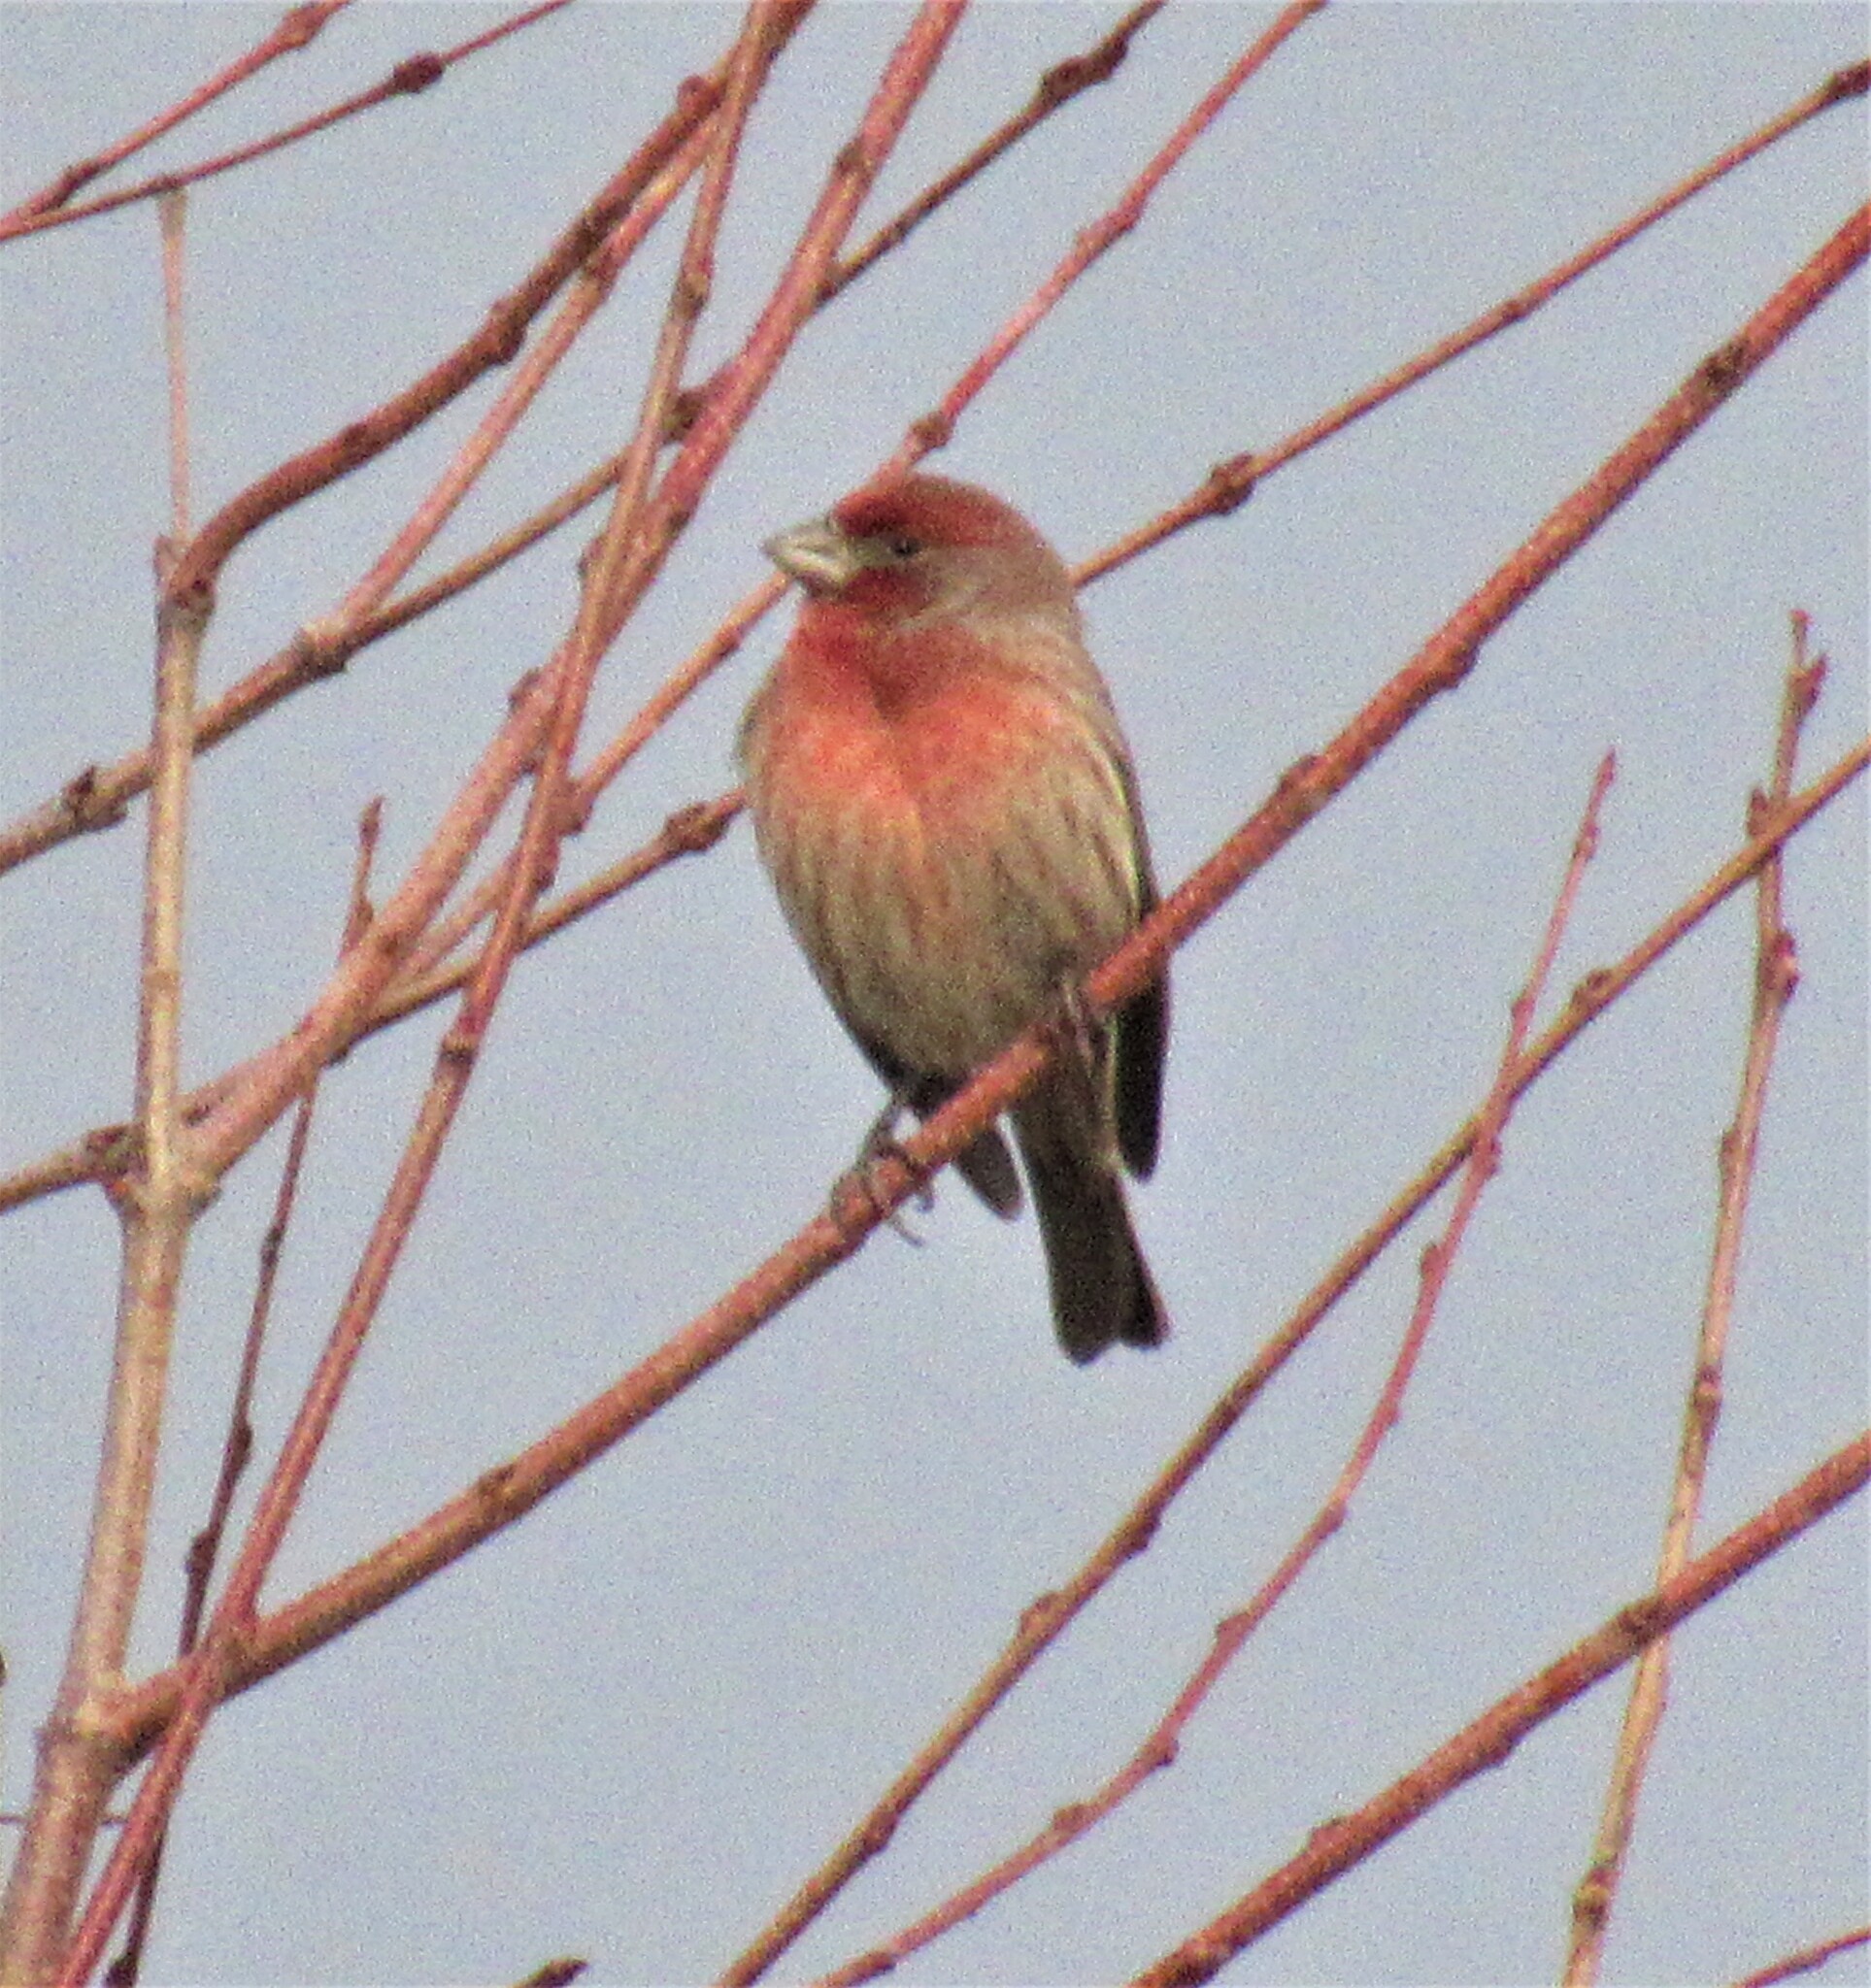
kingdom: Animalia
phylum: Chordata
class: Aves
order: Passeriformes
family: Fringillidae
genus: Haemorhous
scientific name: Haemorhous mexicanus
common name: House finch
